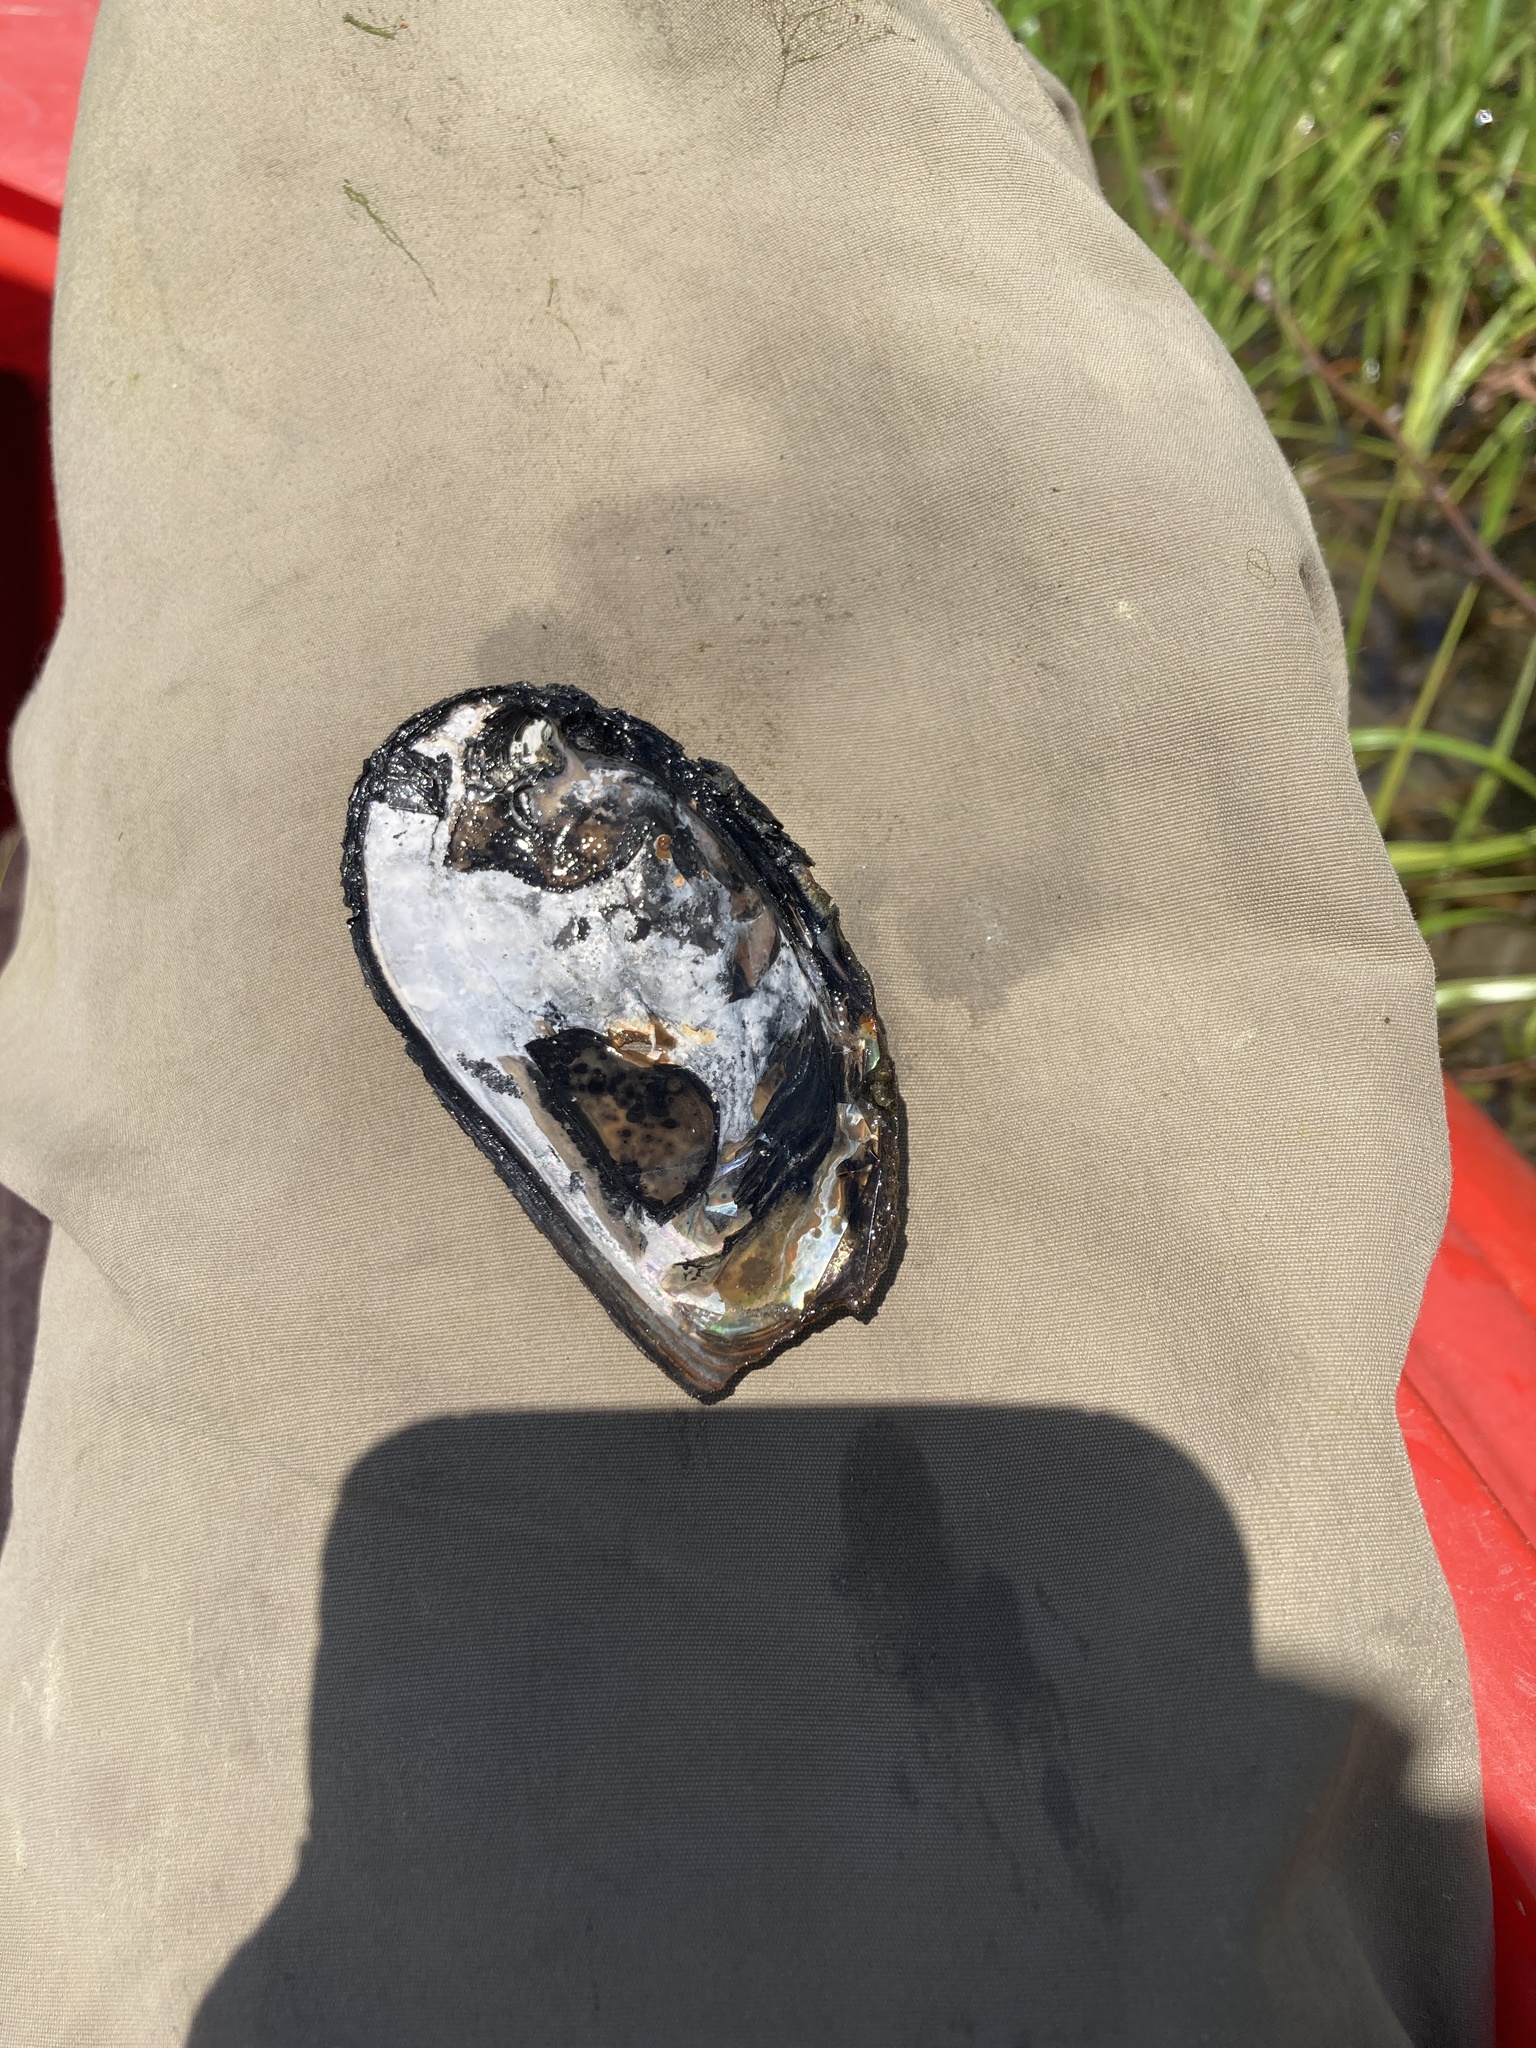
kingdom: Animalia
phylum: Mollusca
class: Bivalvia
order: Unionida
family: Unionidae
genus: Elliptio
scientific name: Elliptio complanata
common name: Eastern elliptio
